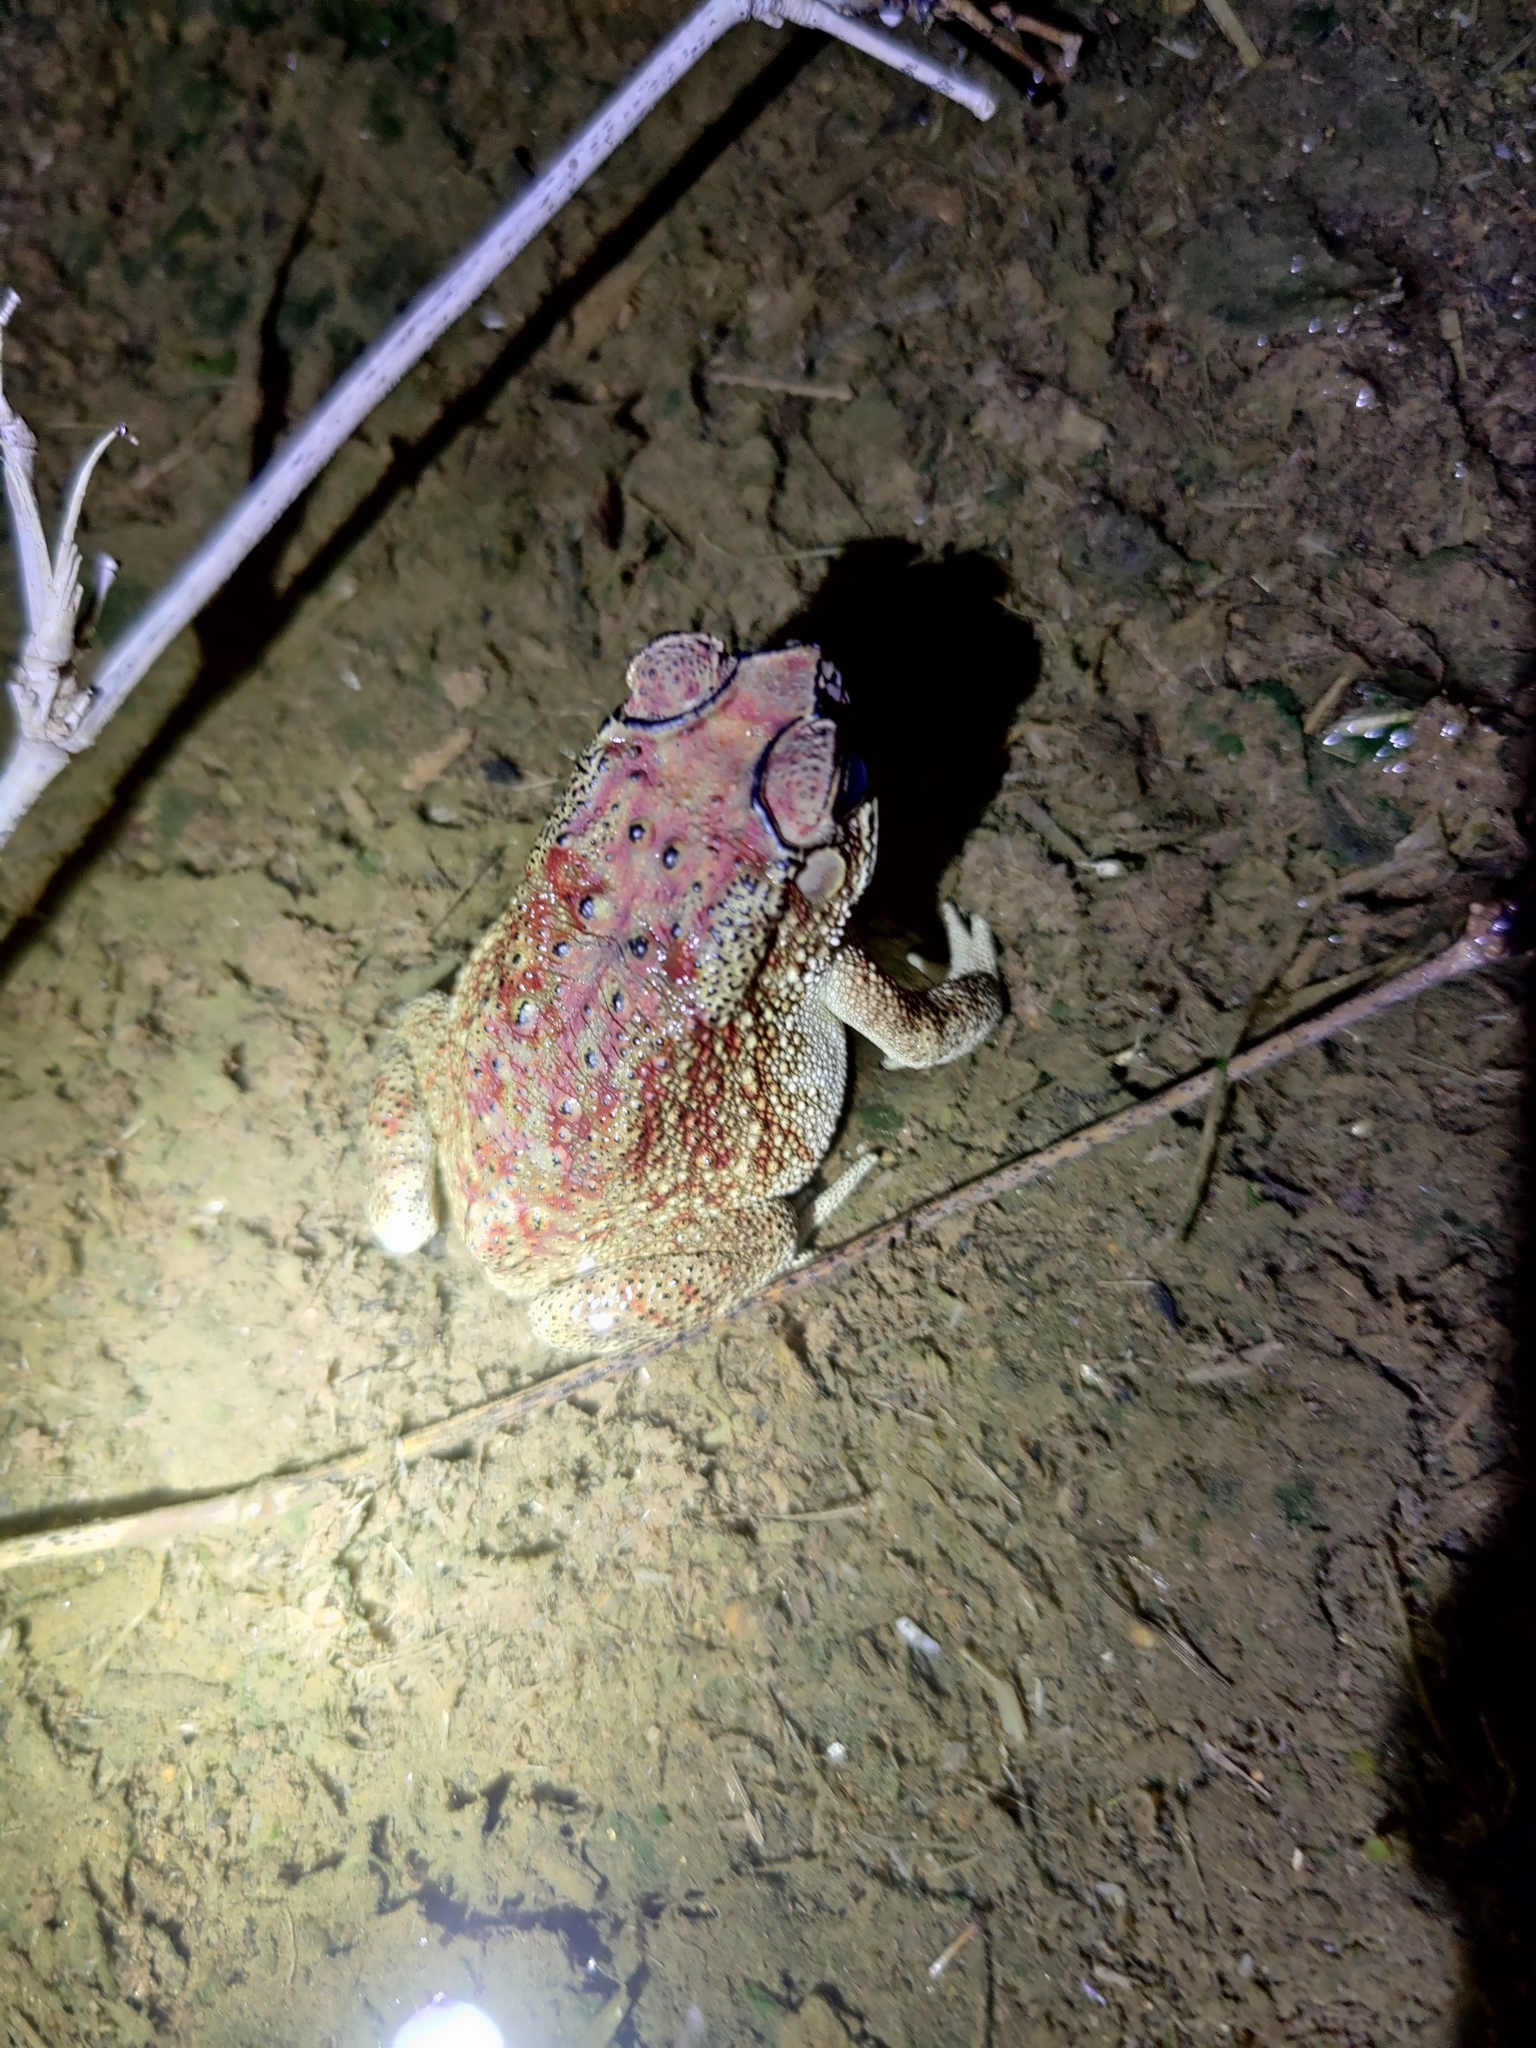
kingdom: Animalia
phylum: Chordata
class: Amphibia
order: Anura
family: Bufonidae
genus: Duttaphrynus
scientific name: Duttaphrynus melanostictus
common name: Common sunda toad
